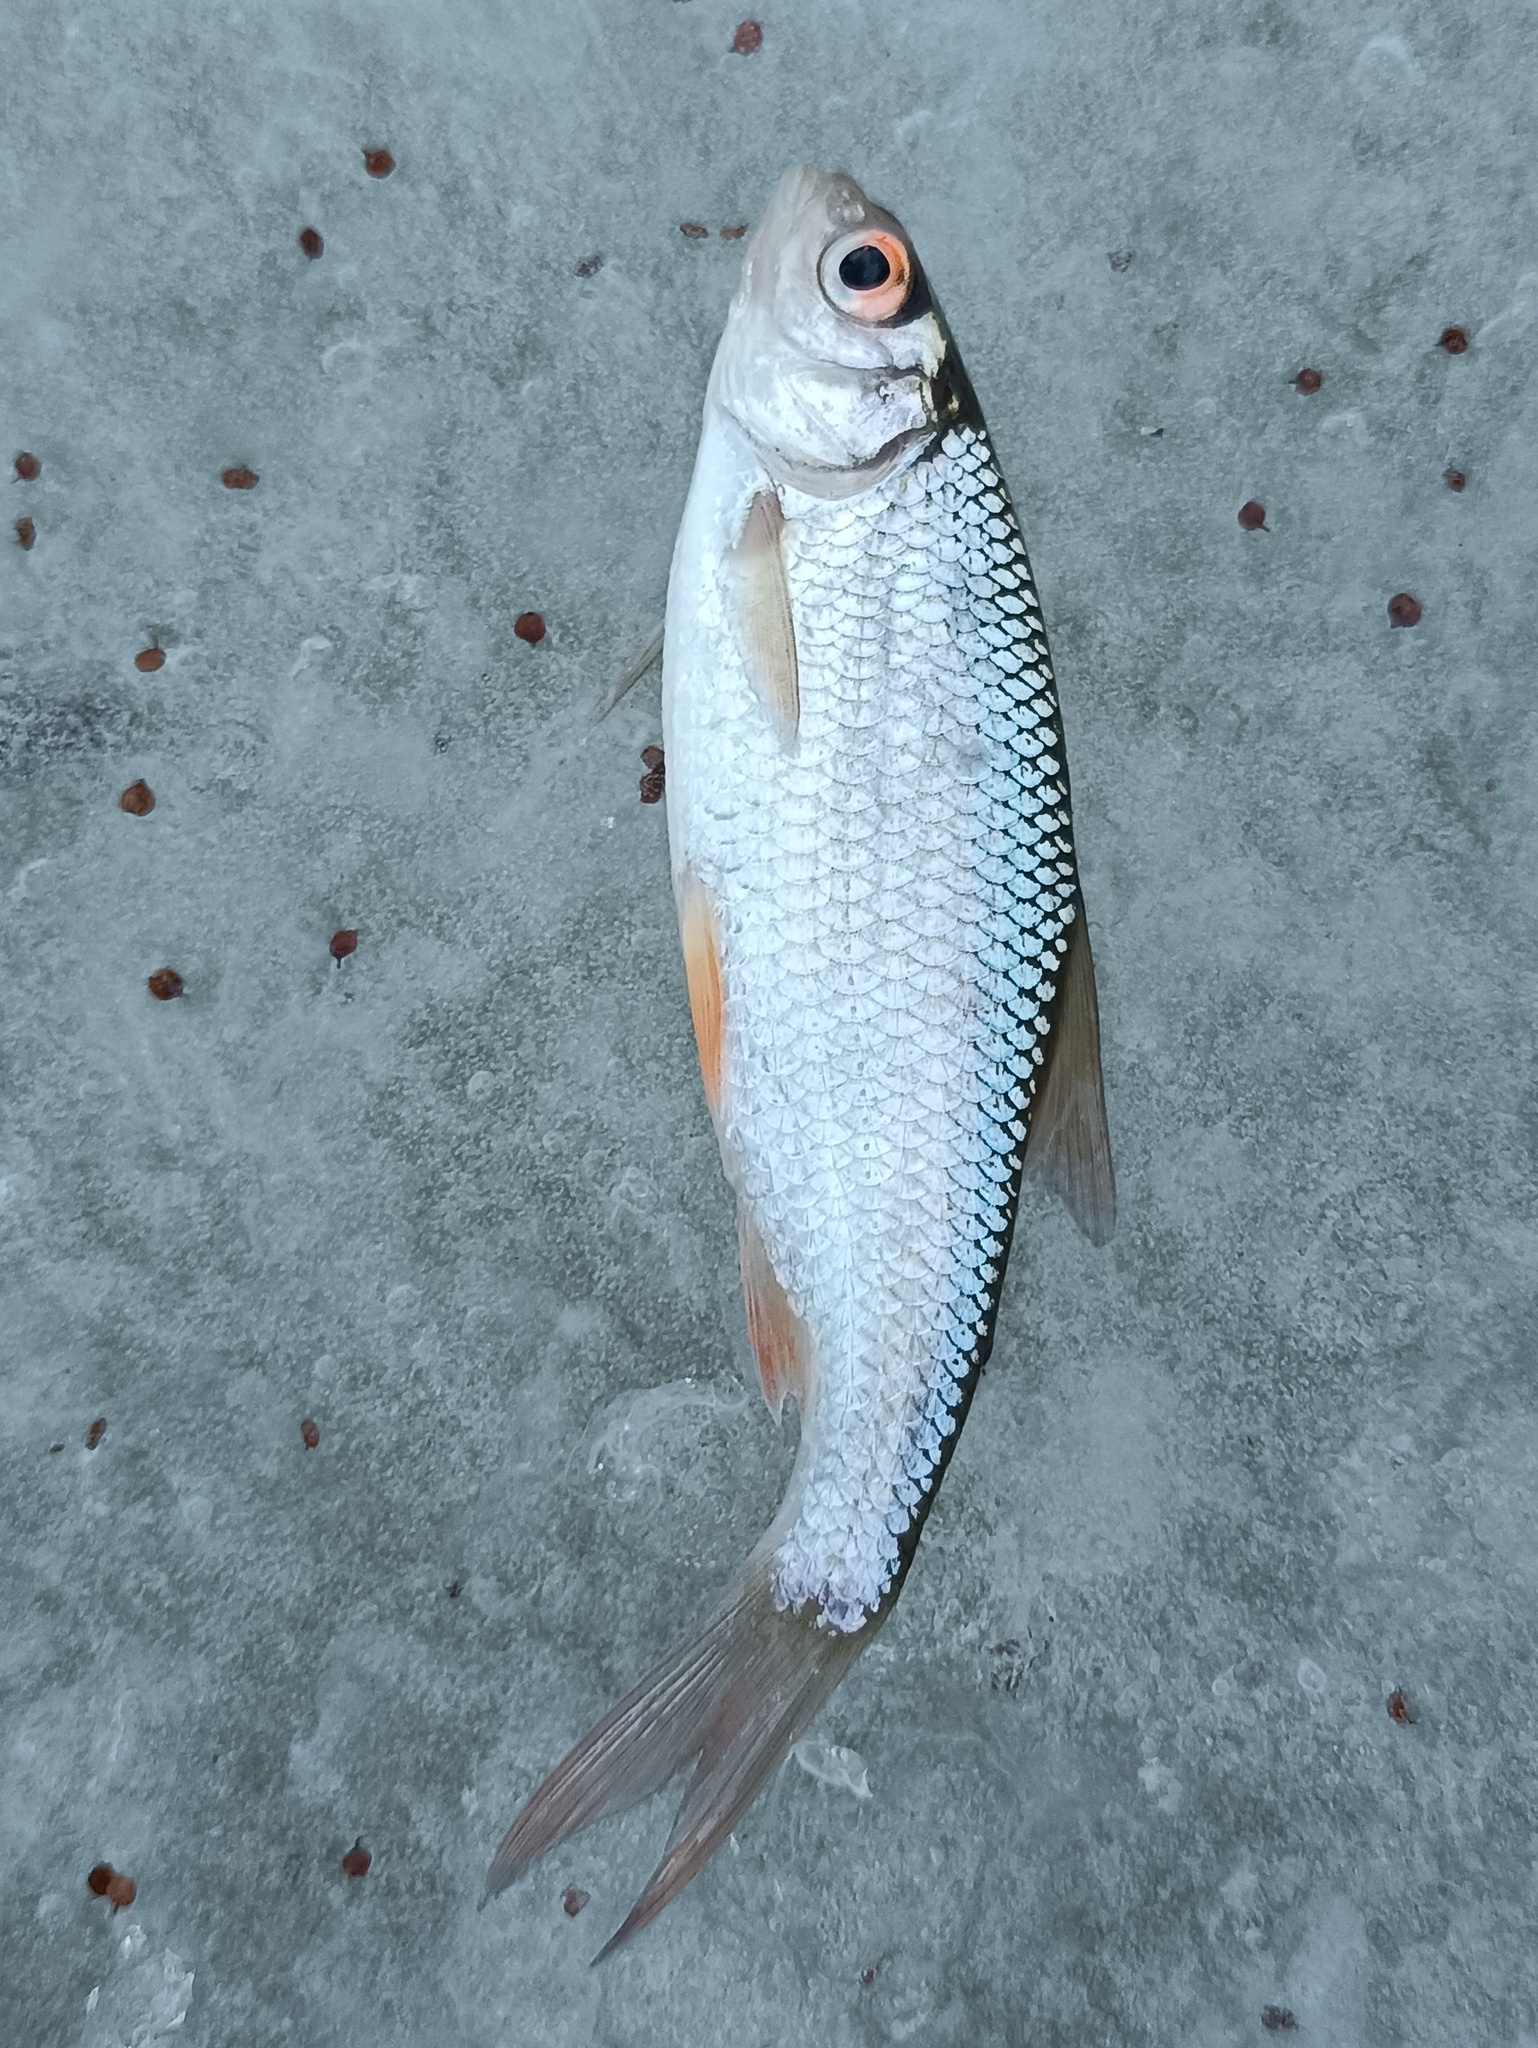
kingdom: Animalia
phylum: Chordata
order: Cypriniformes
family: Cyprinidae
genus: Rutilus
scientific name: Rutilus rutilus
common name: Roach
